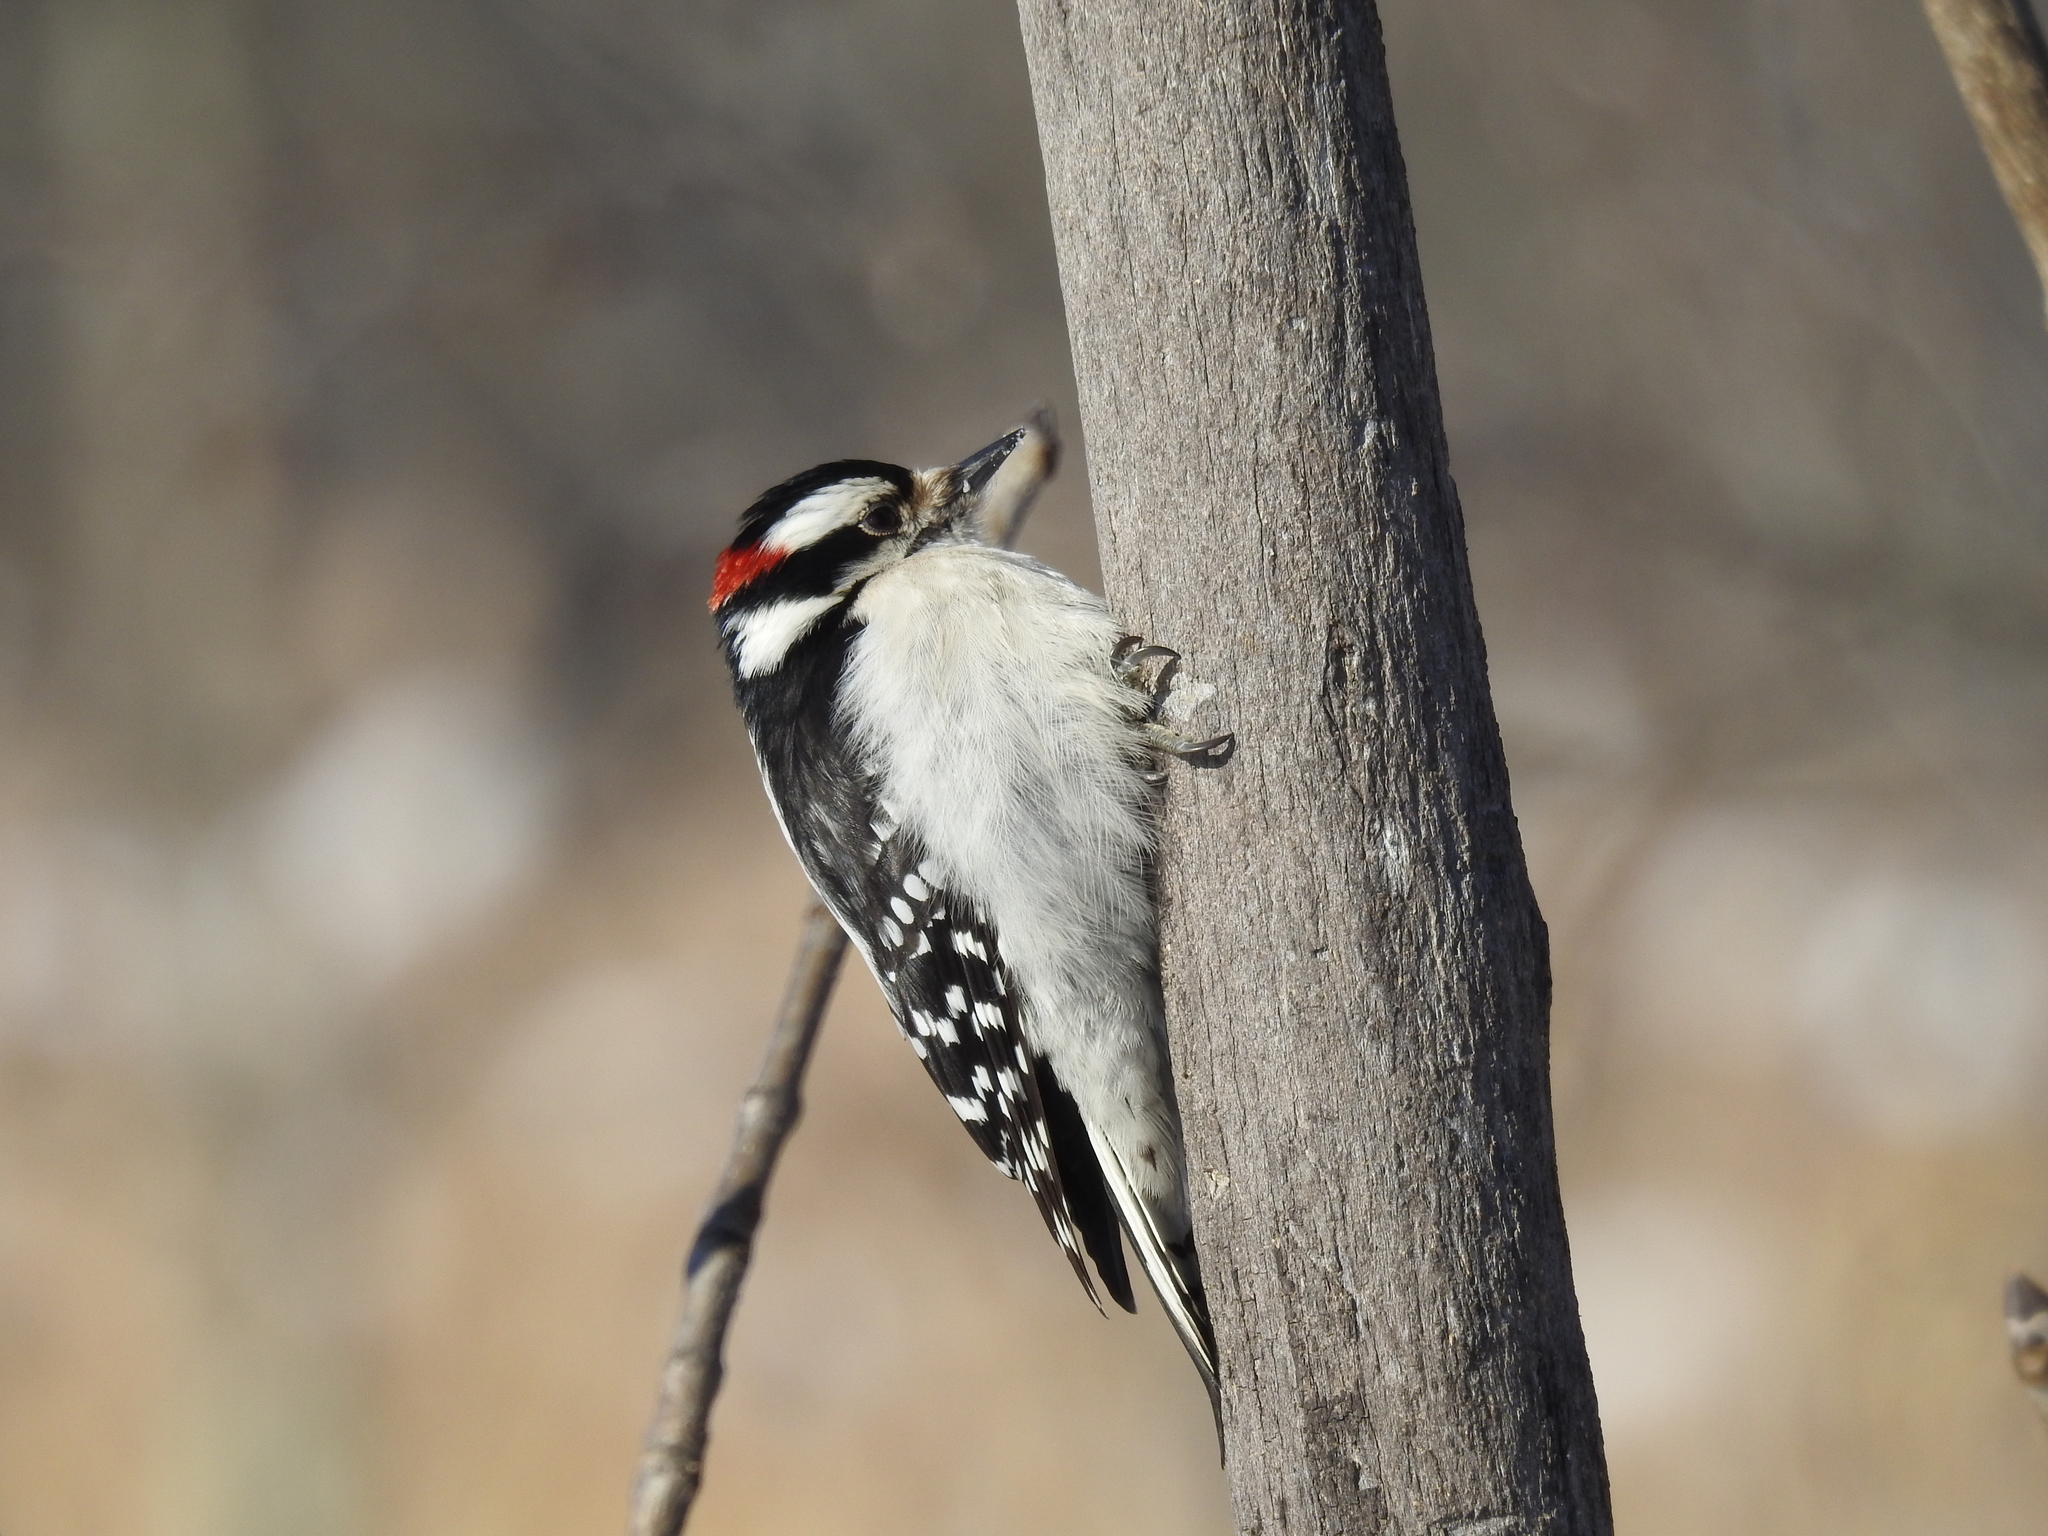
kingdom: Animalia
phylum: Chordata
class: Aves
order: Piciformes
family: Picidae
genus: Dryobates
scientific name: Dryobates pubescens
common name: Downy woodpecker
